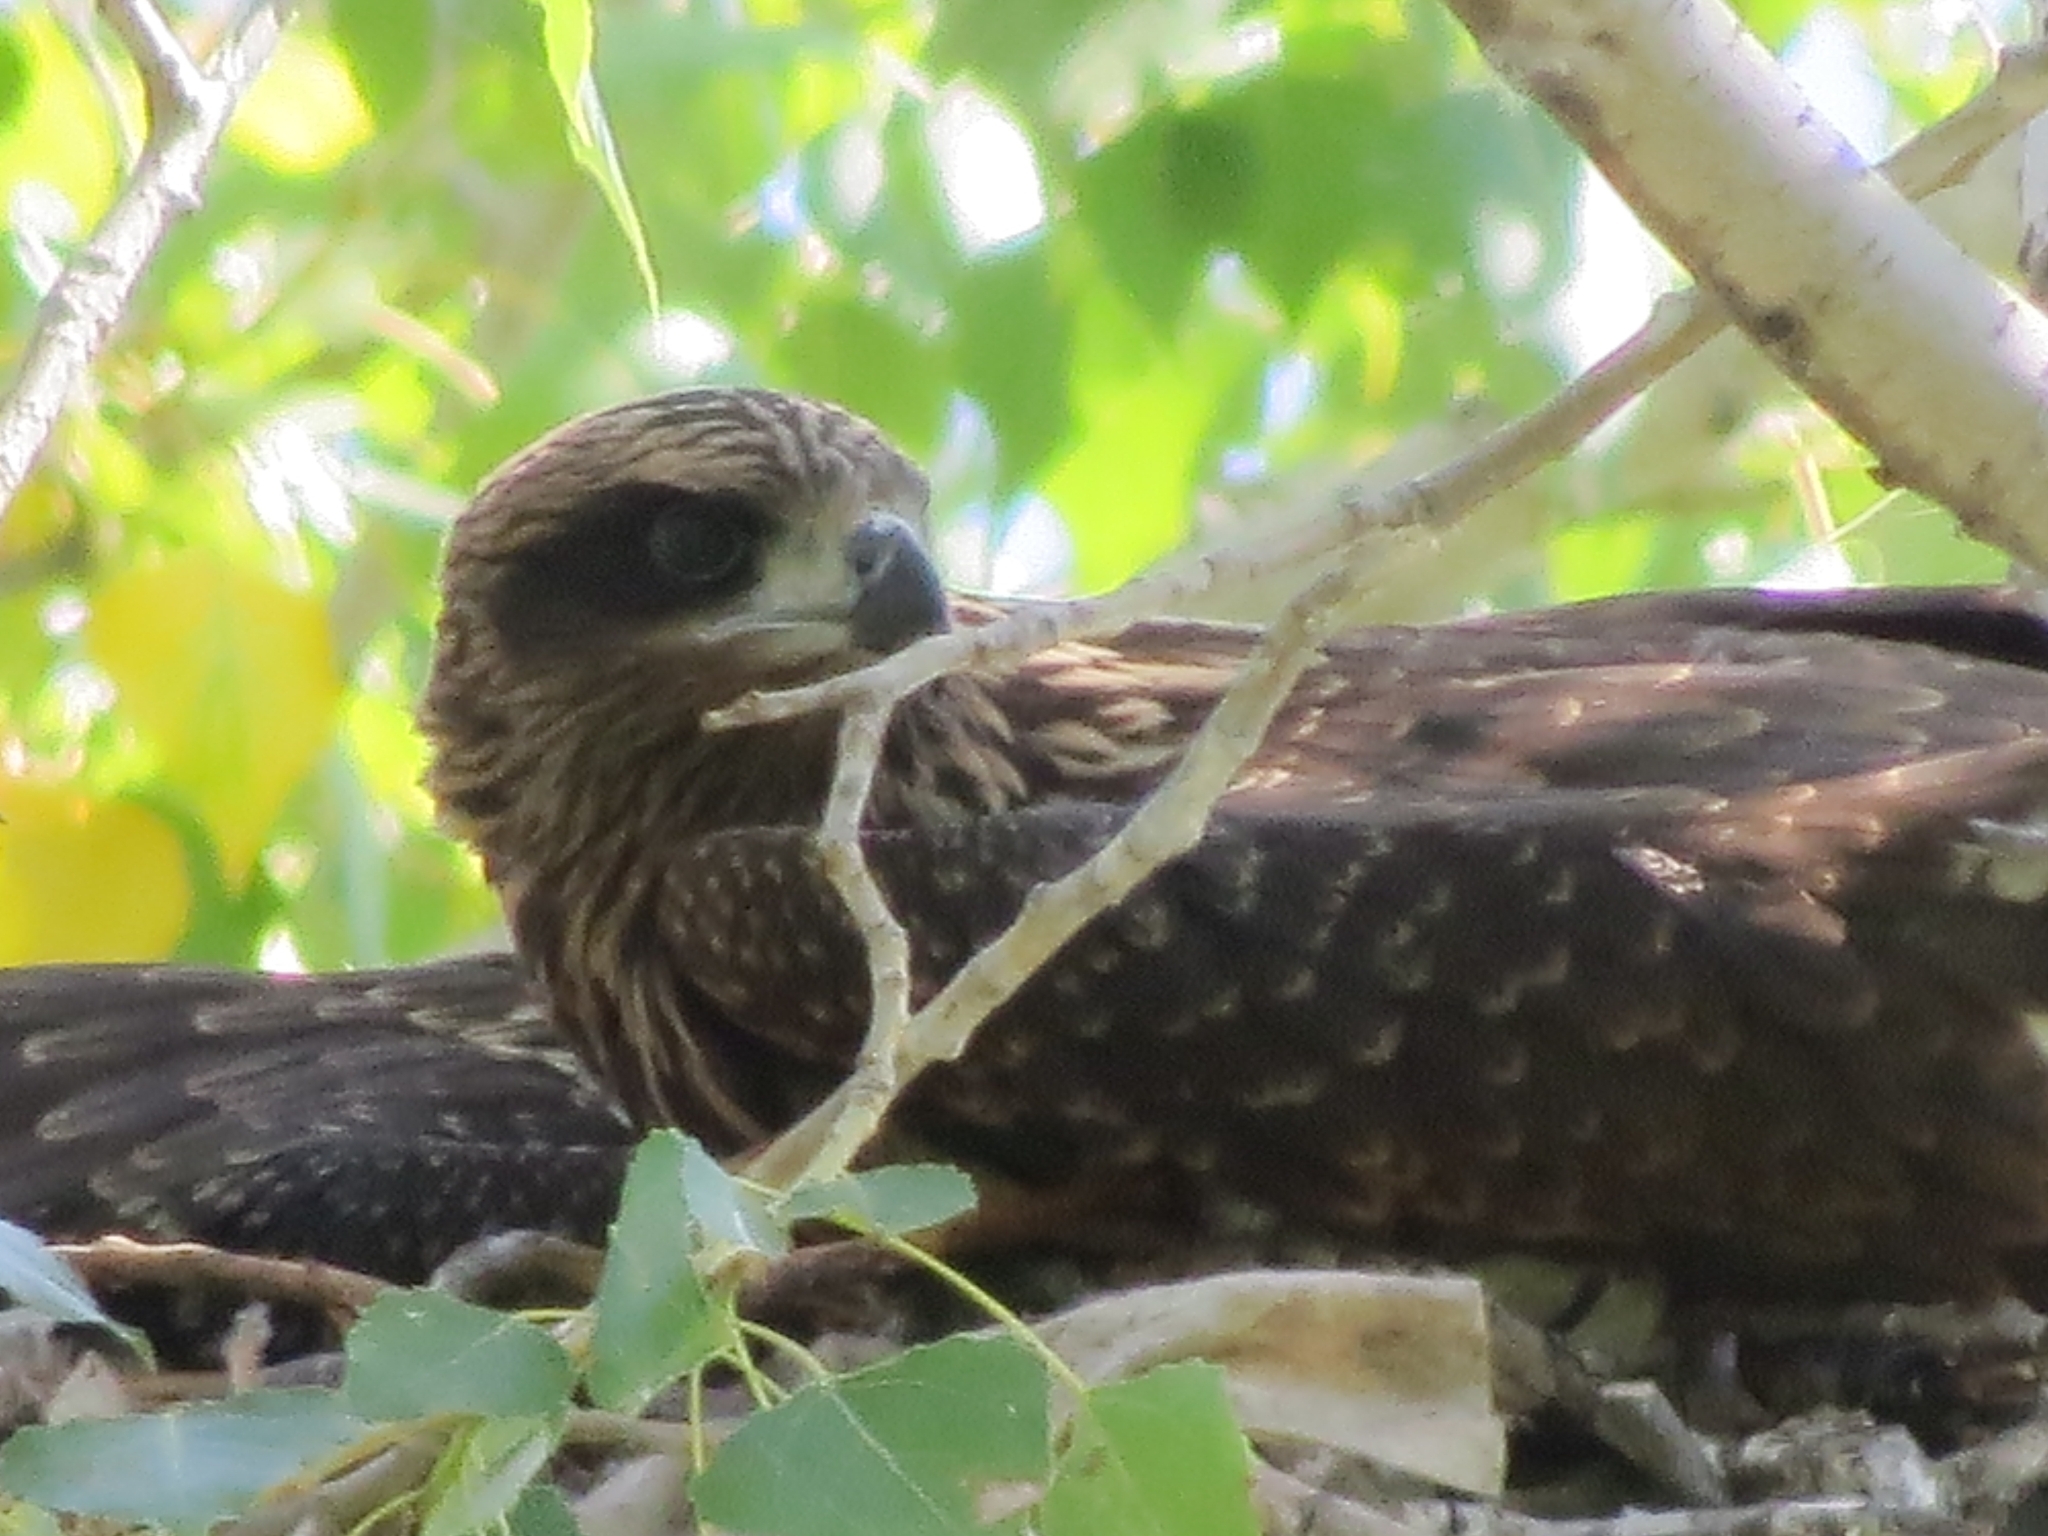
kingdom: Animalia
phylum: Chordata
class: Aves
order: Accipitriformes
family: Accipitridae
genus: Milvus
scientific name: Milvus migrans
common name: Black kite
